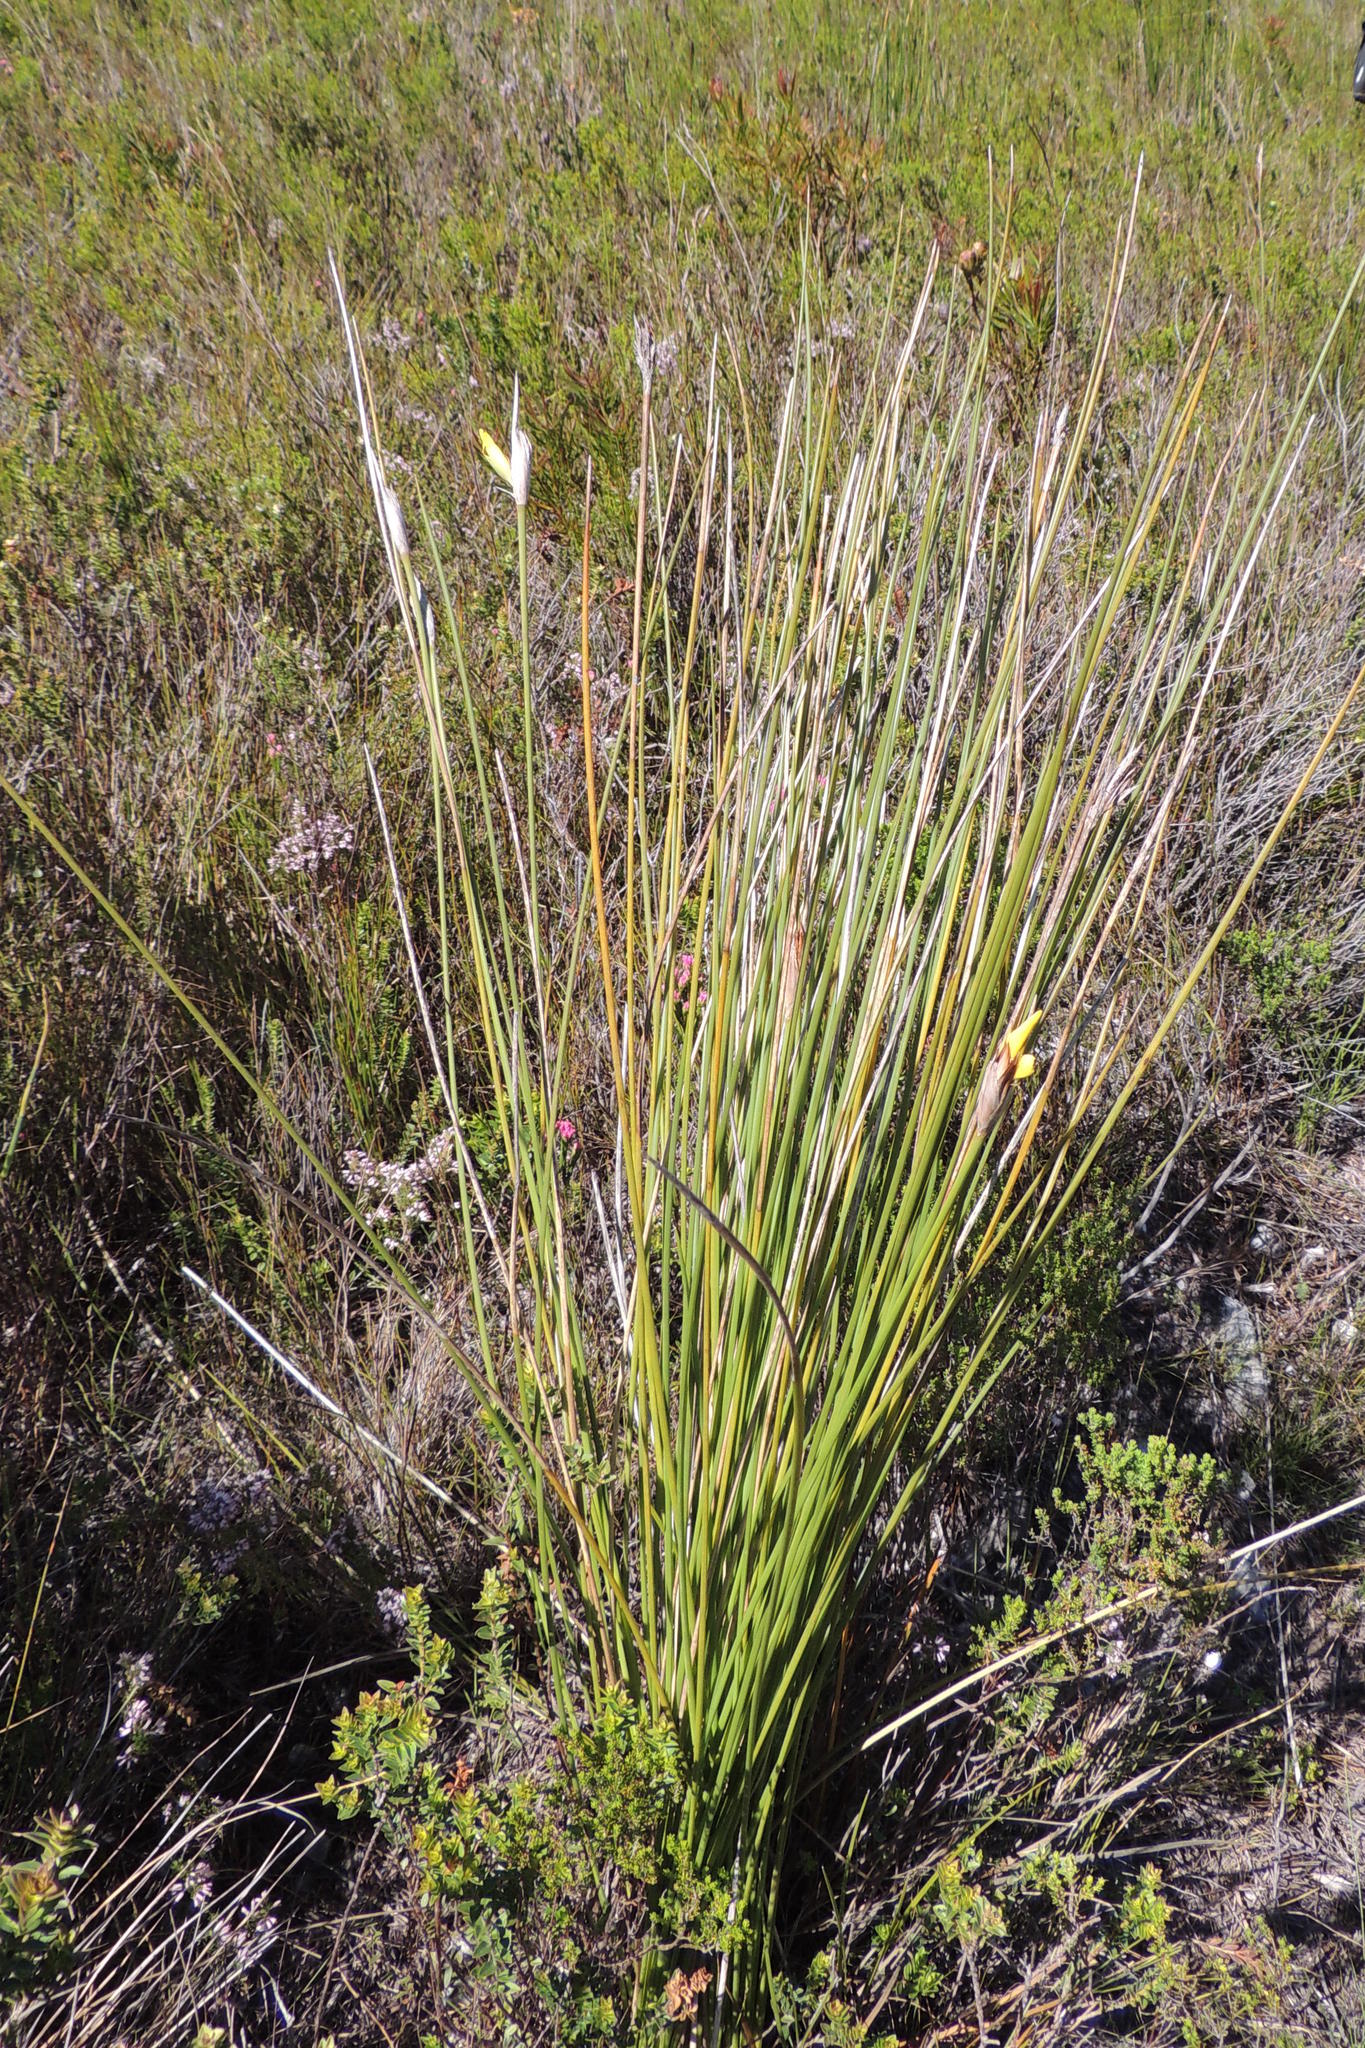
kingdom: Plantae
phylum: Tracheophyta
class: Liliopsida
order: Asparagales
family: Iridaceae
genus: Bobartia
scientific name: Bobartia macrospatha
